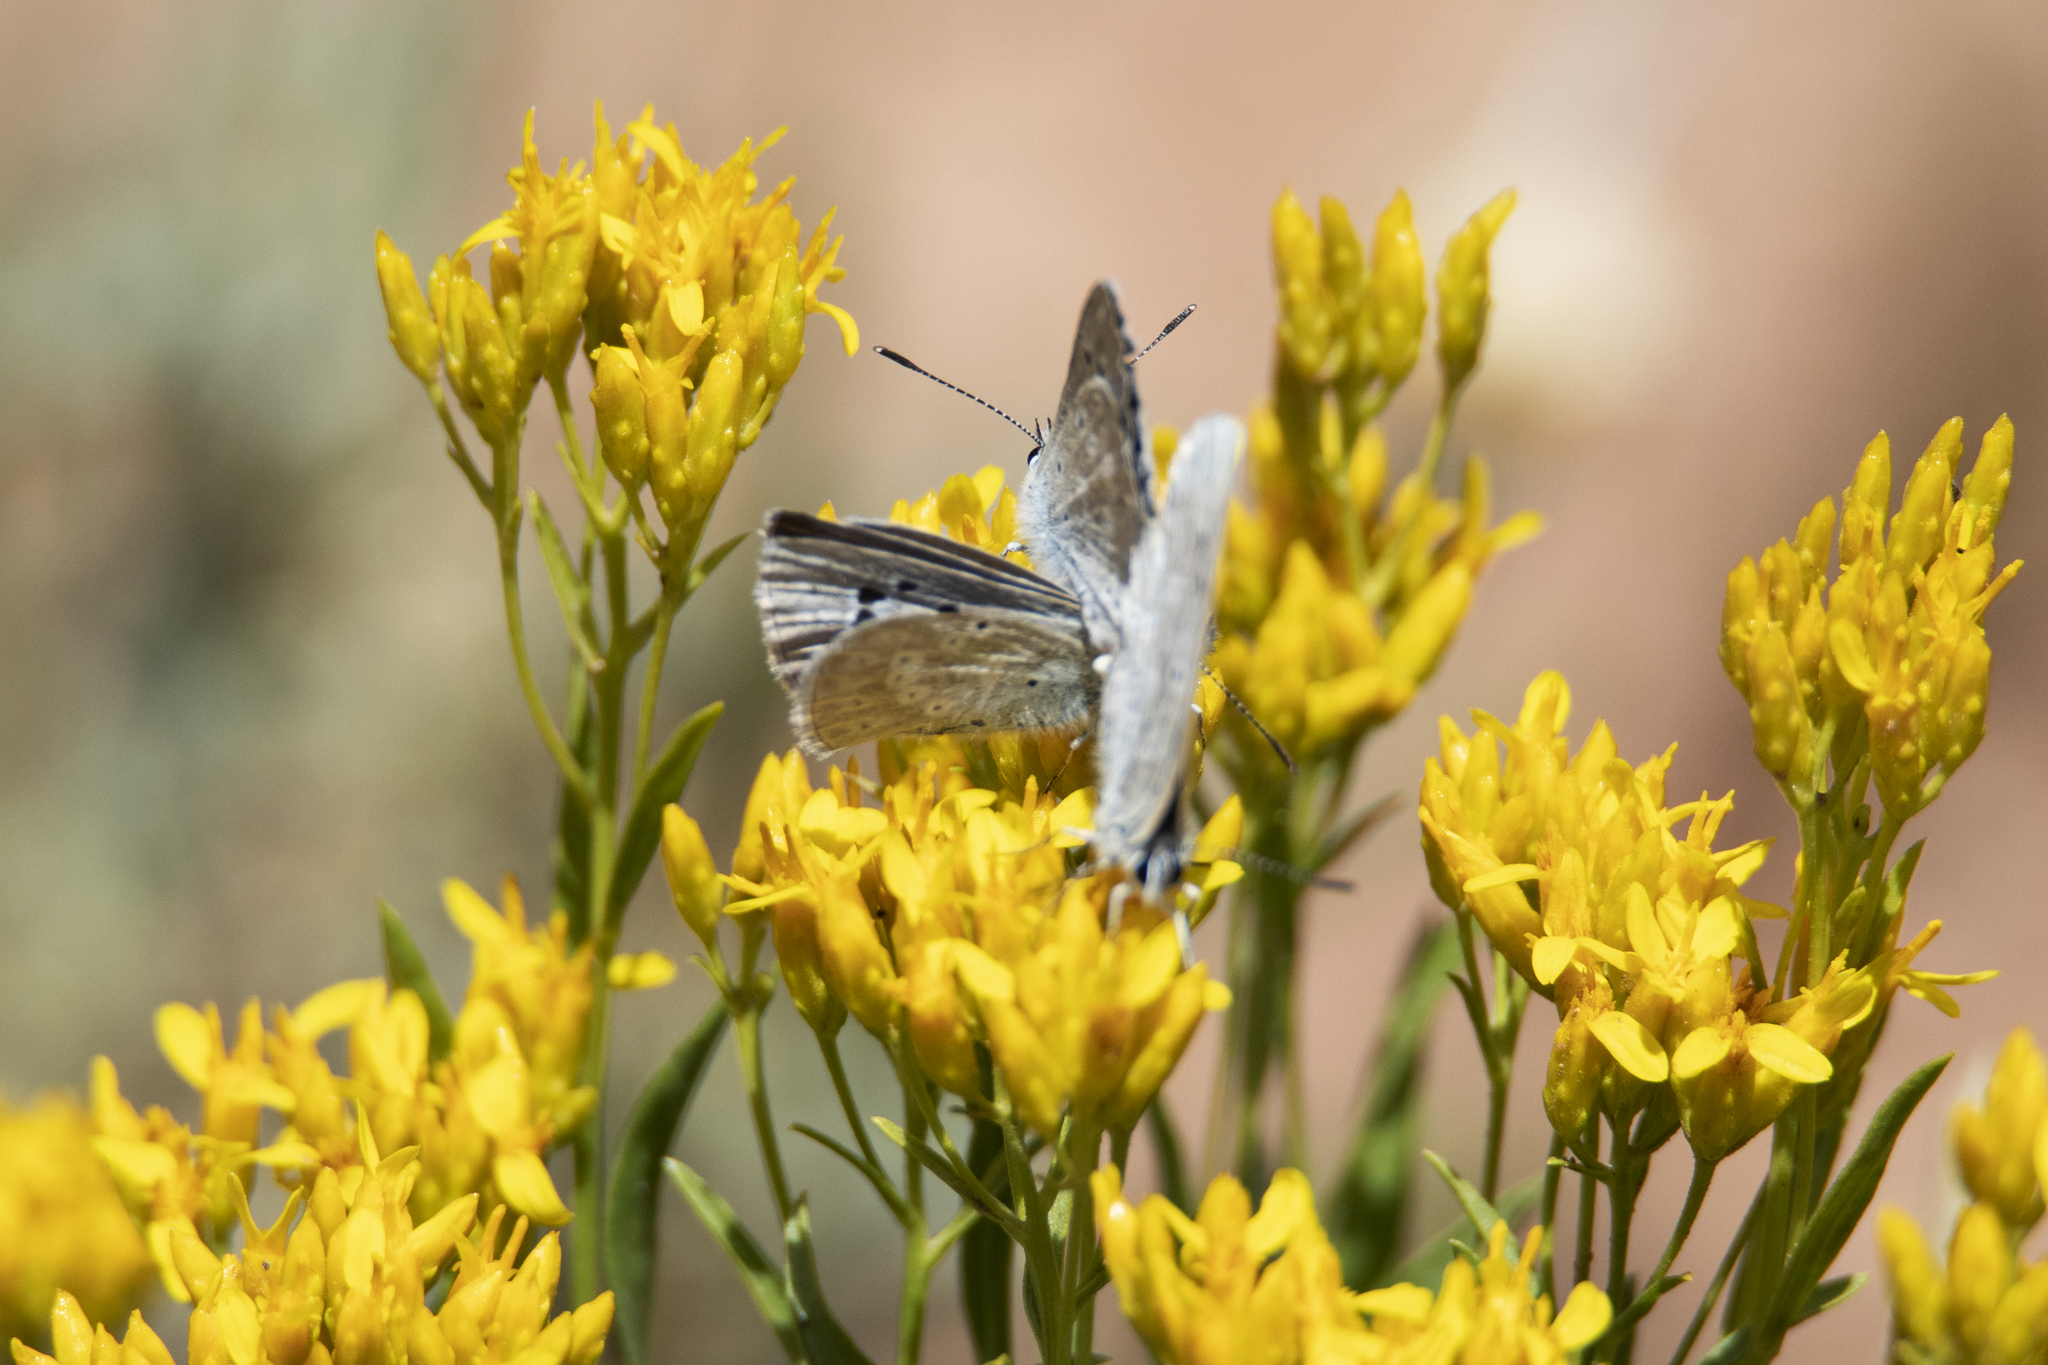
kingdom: Animalia
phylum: Arthropoda
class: Insecta
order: Lepidoptera
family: Lycaenidae
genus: Icaricia
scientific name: Icaricia icarioides
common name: Boisduval's blue
